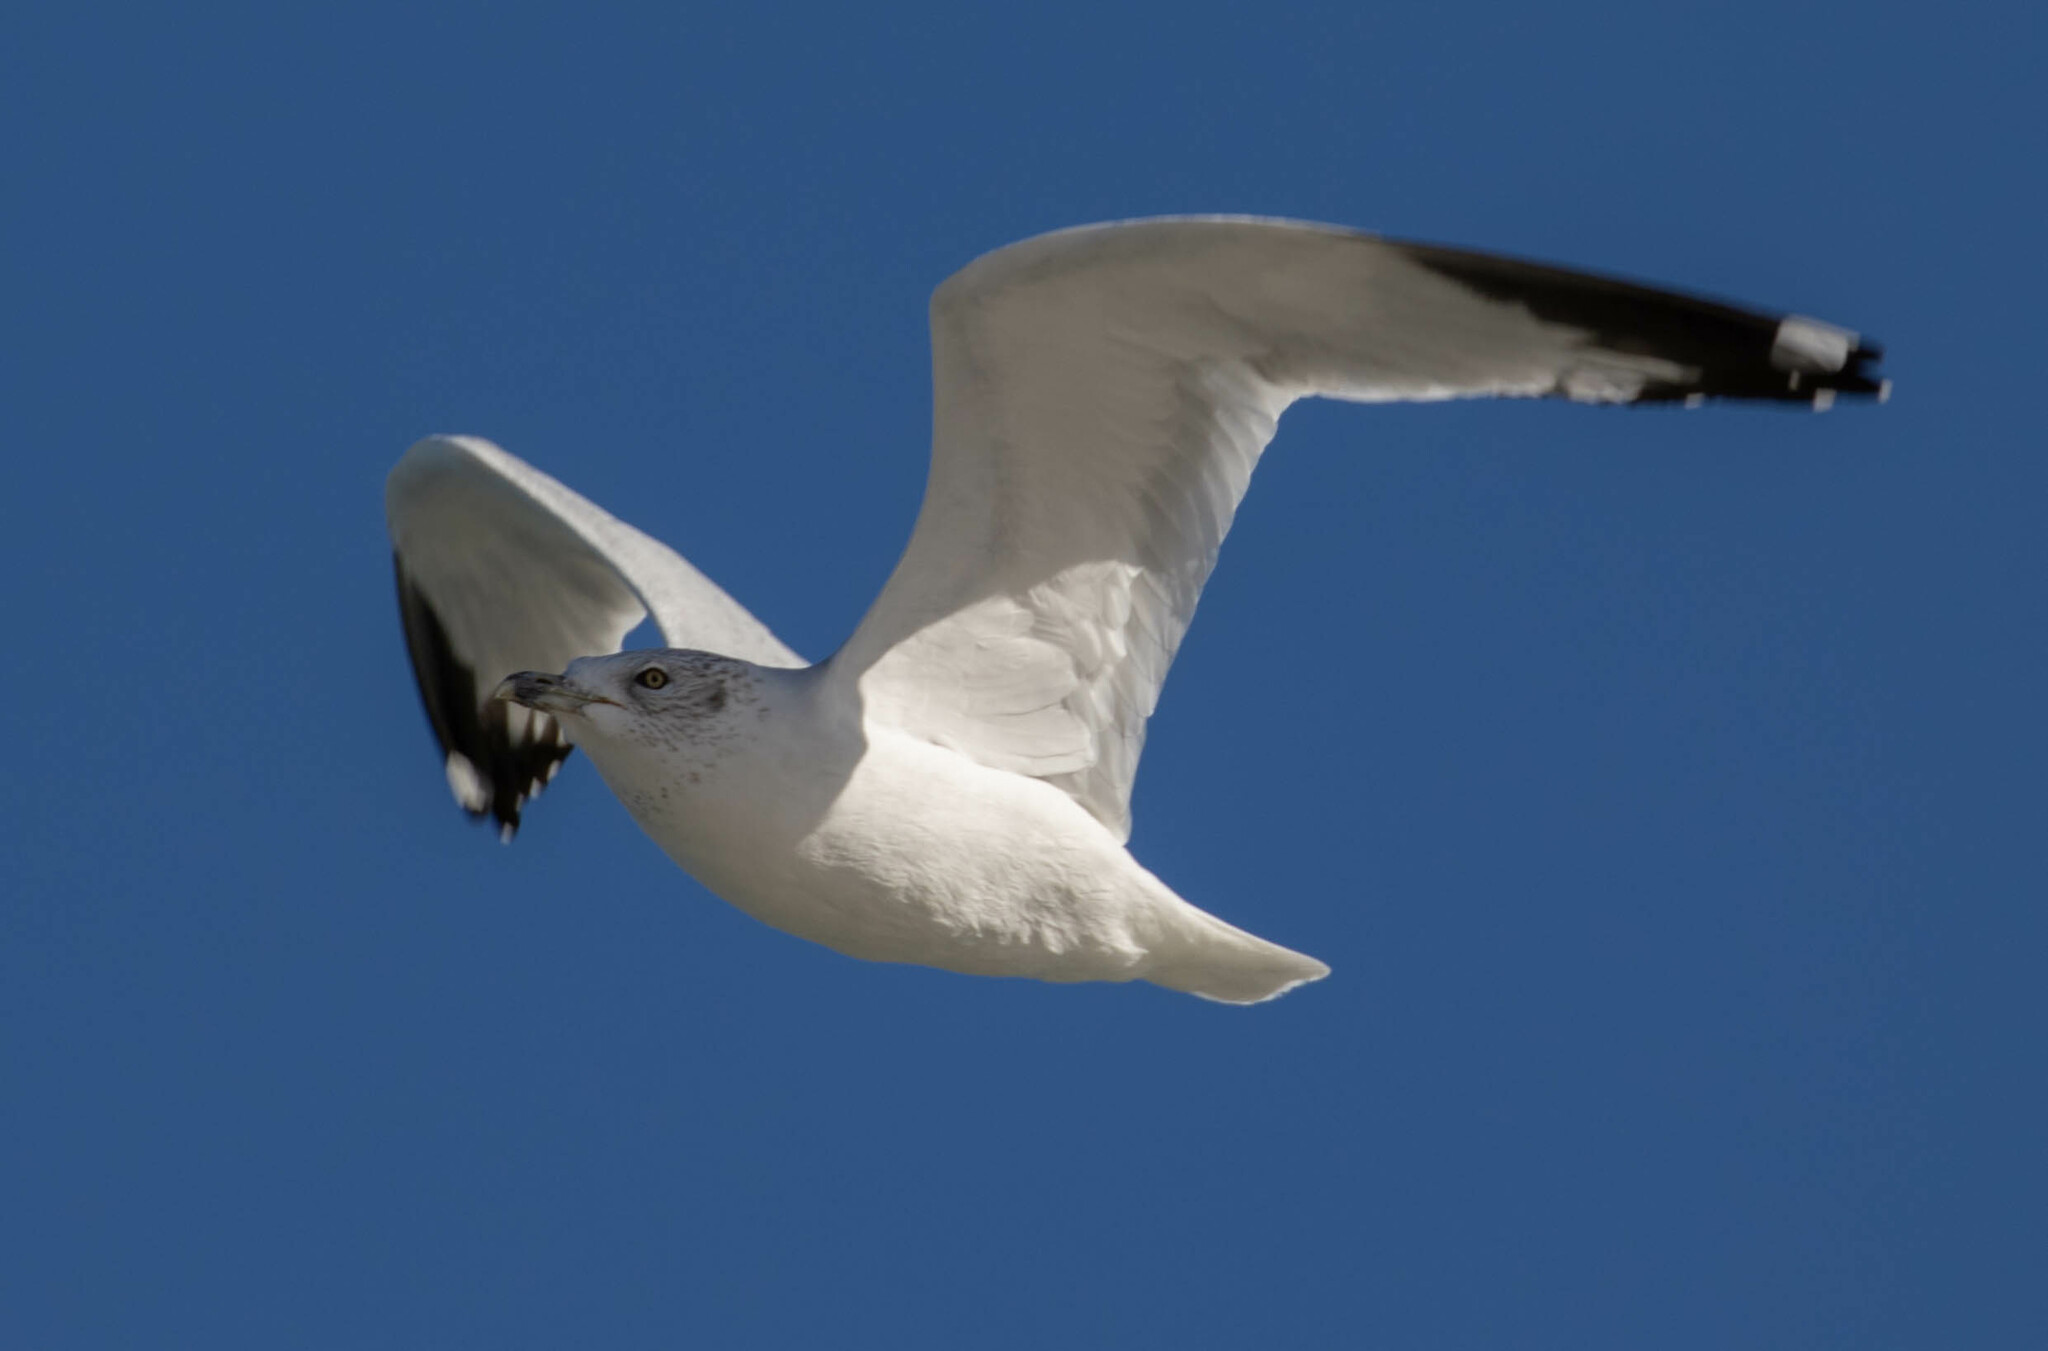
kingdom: Animalia
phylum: Chordata
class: Aves
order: Charadriiformes
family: Laridae
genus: Larus
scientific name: Larus delawarensis
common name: Ring-billed gull
